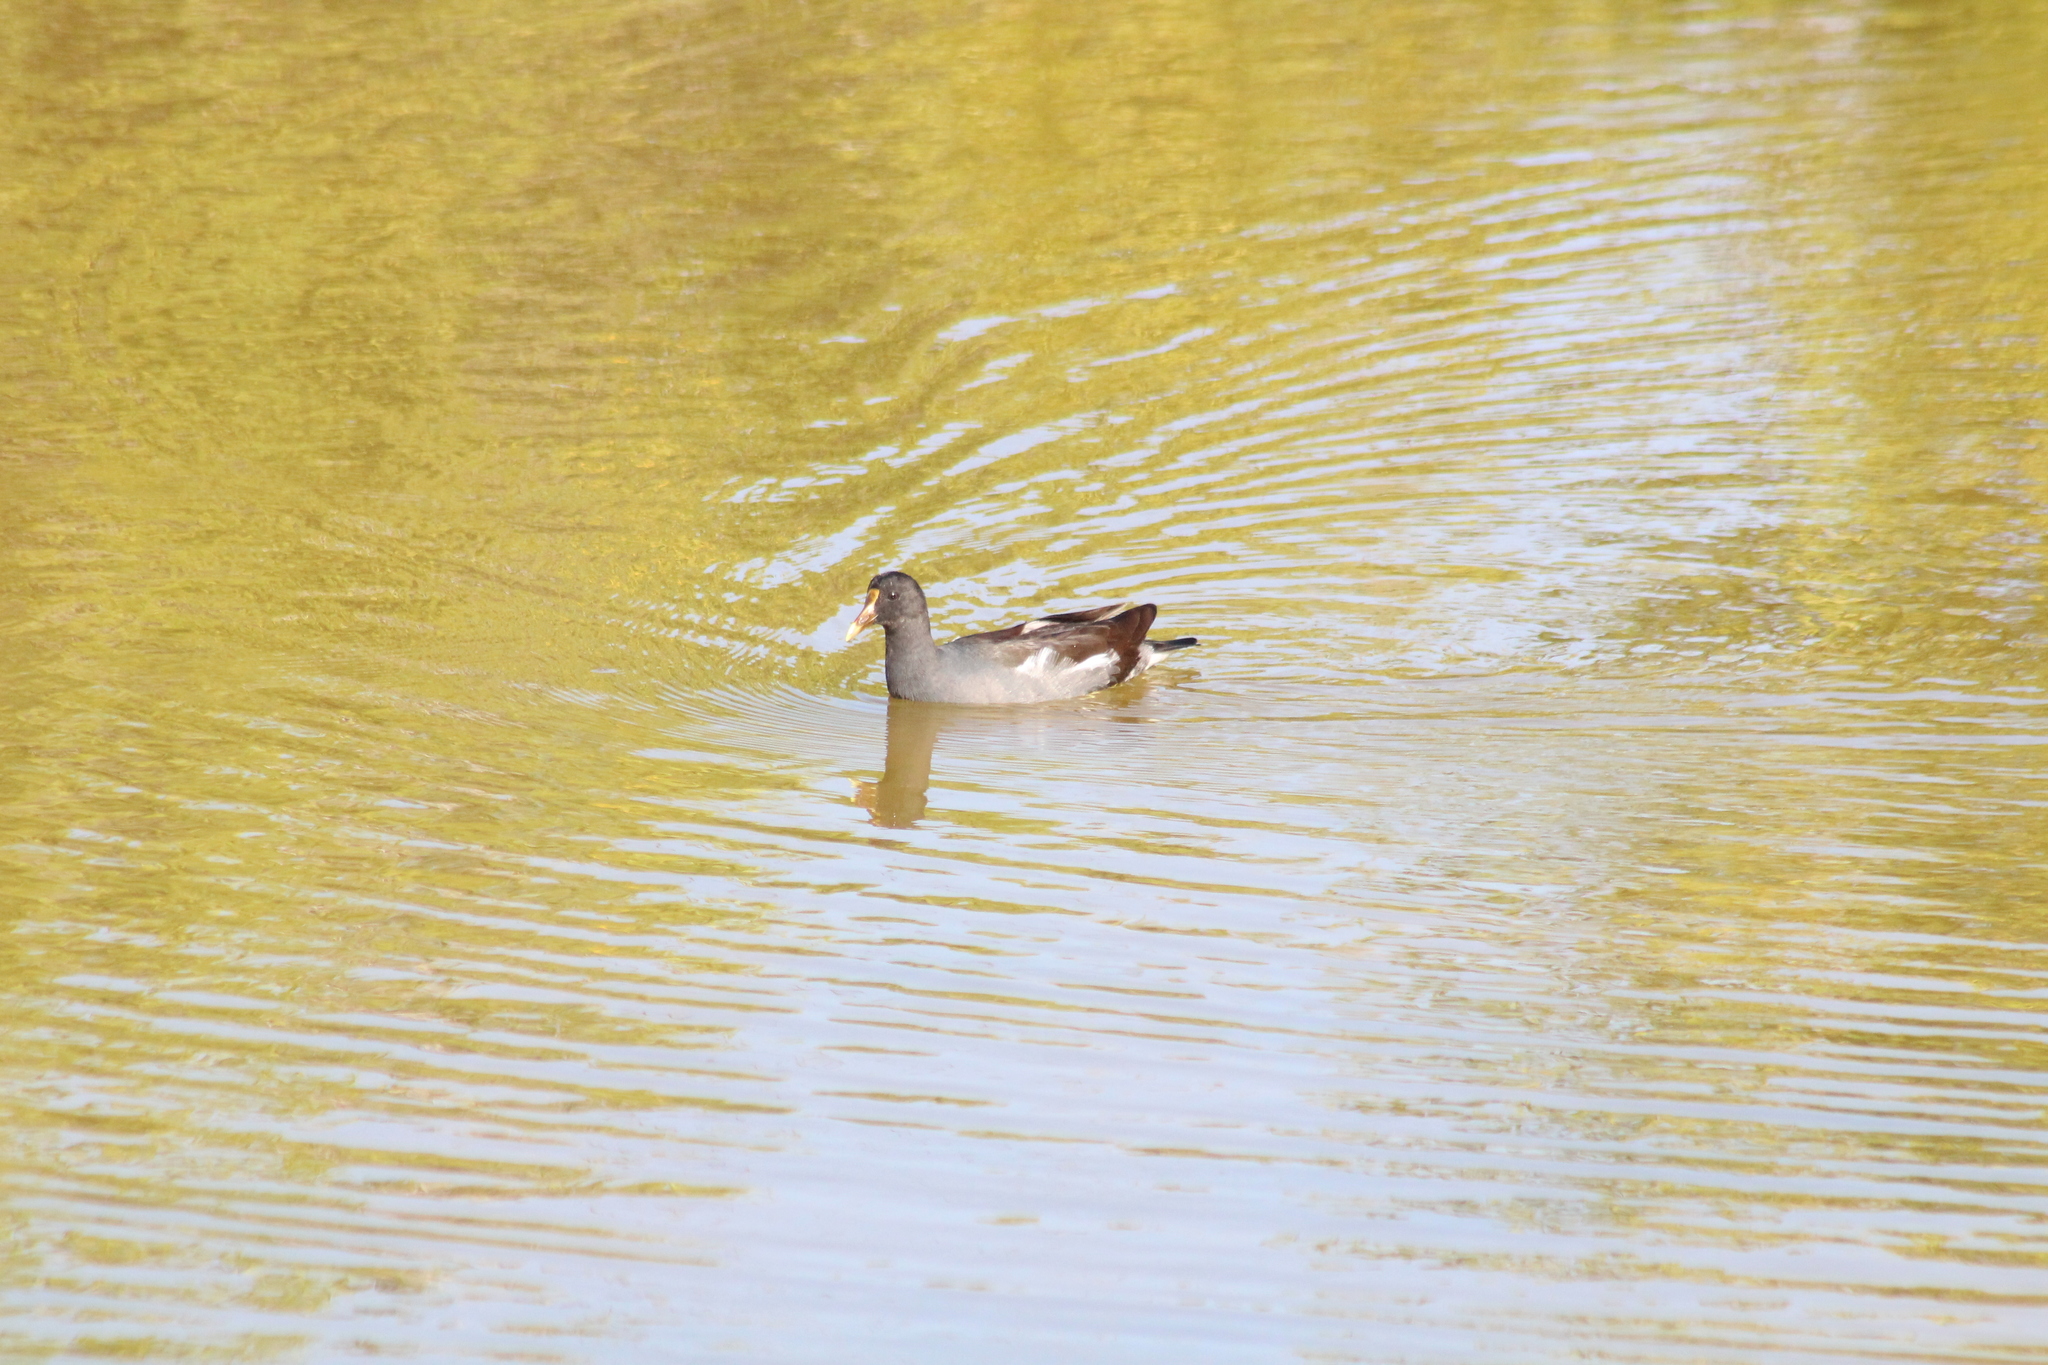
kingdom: Animalia
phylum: Chordata
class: Aves
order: Gruiformes
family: Rallidae
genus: Gallinula
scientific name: Gallinula chloropus
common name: Common moorhen
